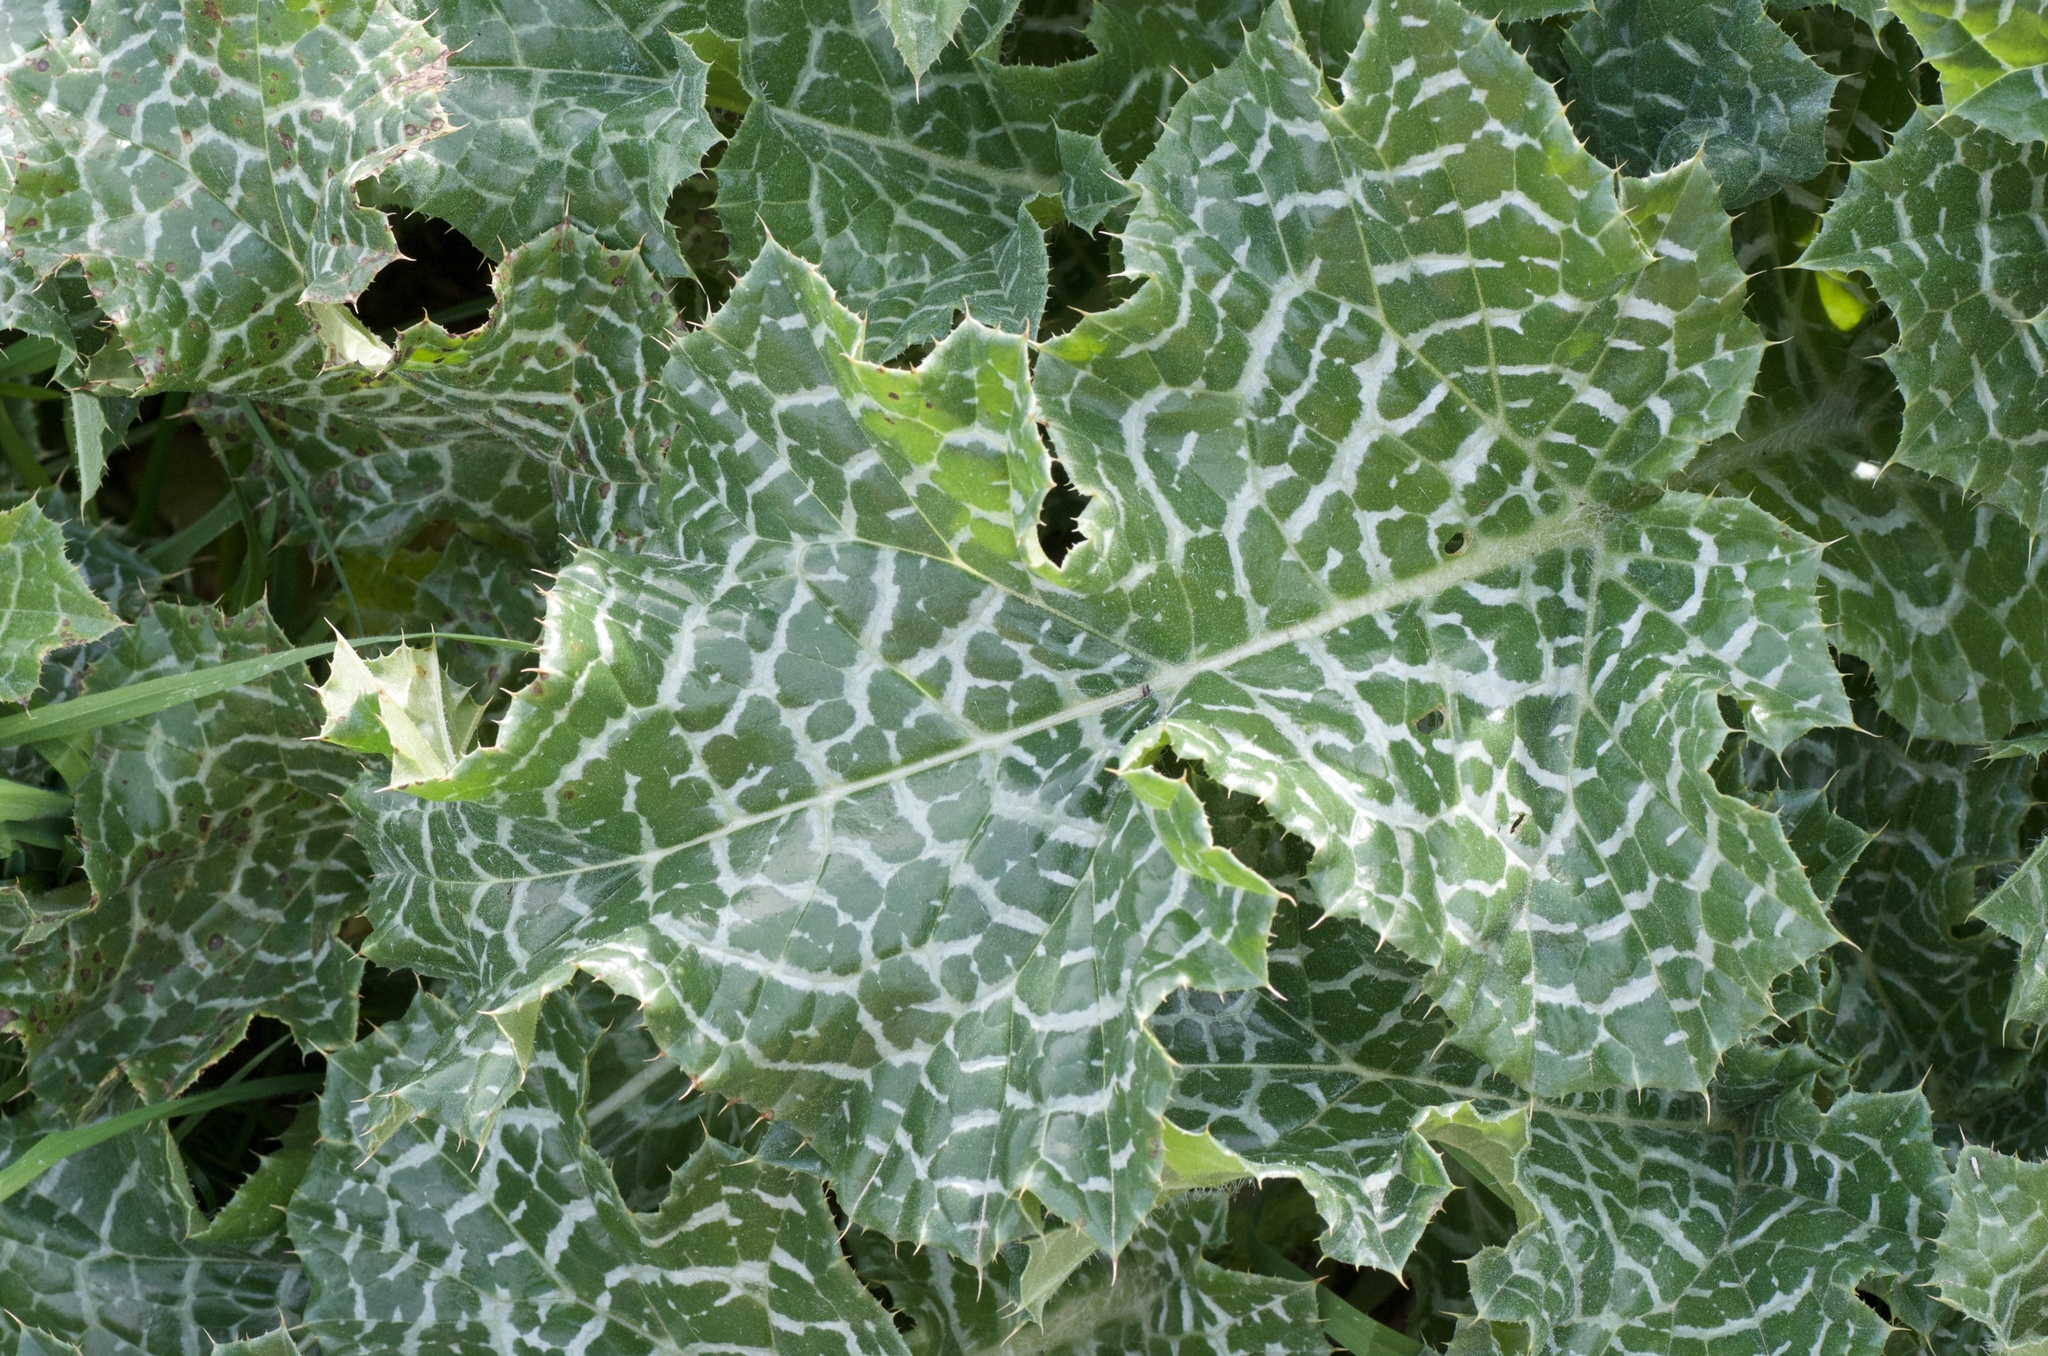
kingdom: Plantae
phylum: Tracheophyta
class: Magnoliopsida
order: Asterales
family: Asteraceae
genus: Silybum
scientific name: Silybum marianum
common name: Milk thistle
